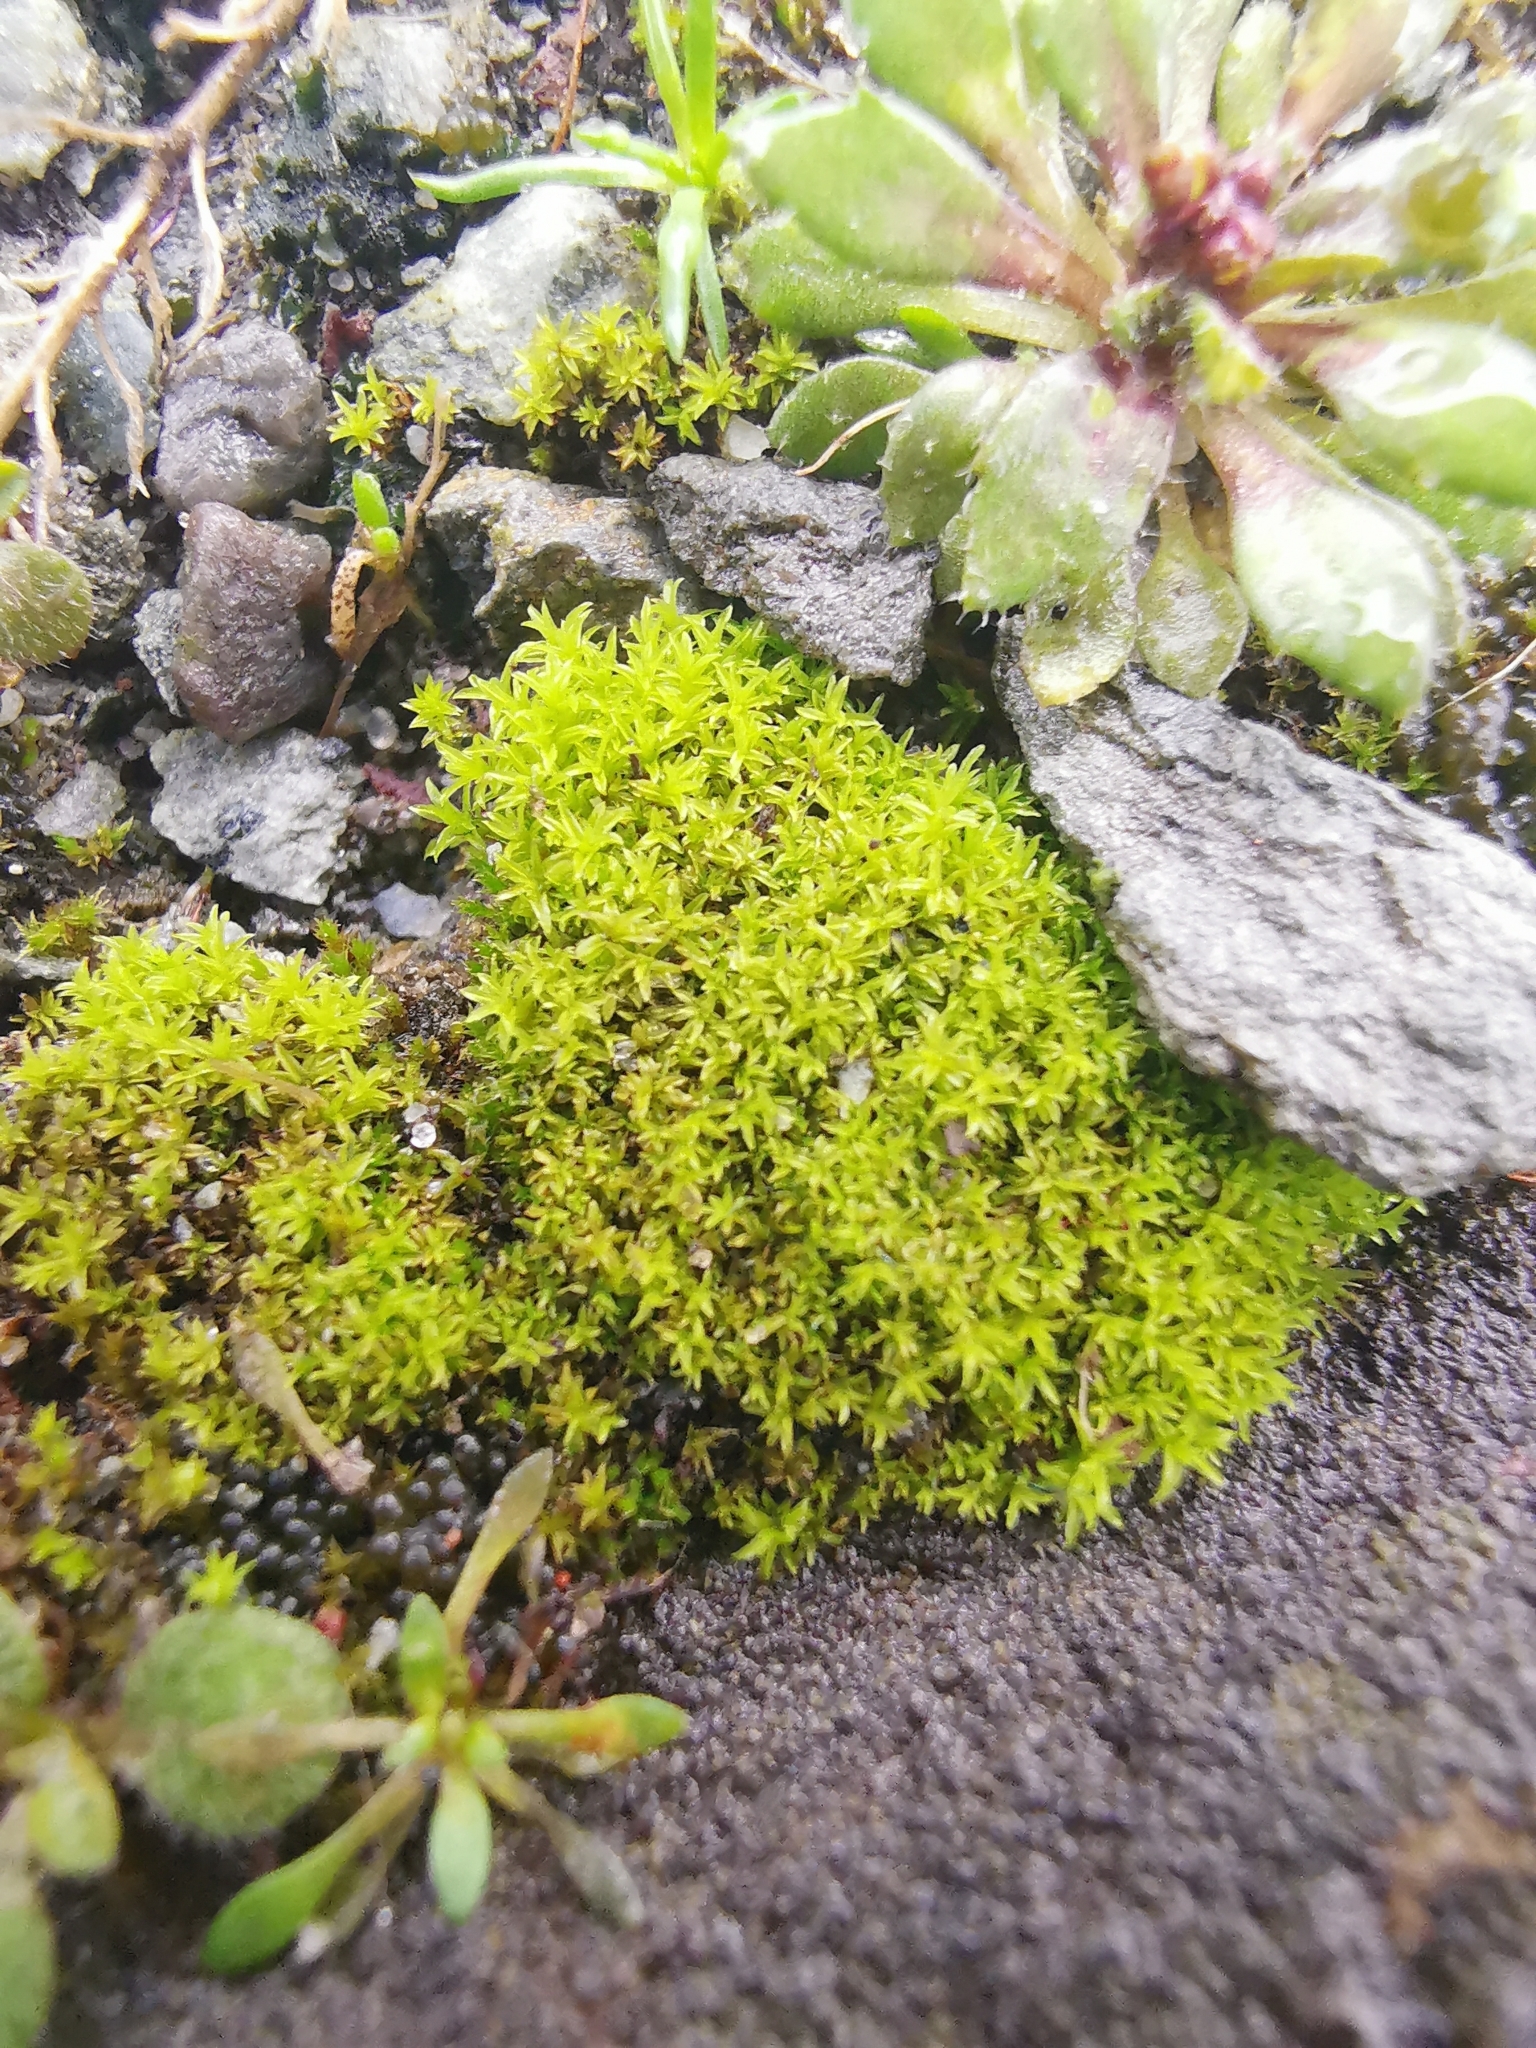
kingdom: Plantae
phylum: Bryophyta
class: Bryopsida
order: Pottiales
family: Pottiaceae
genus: Barbula
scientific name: Barbula unguiculata
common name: Prickly beard moss
